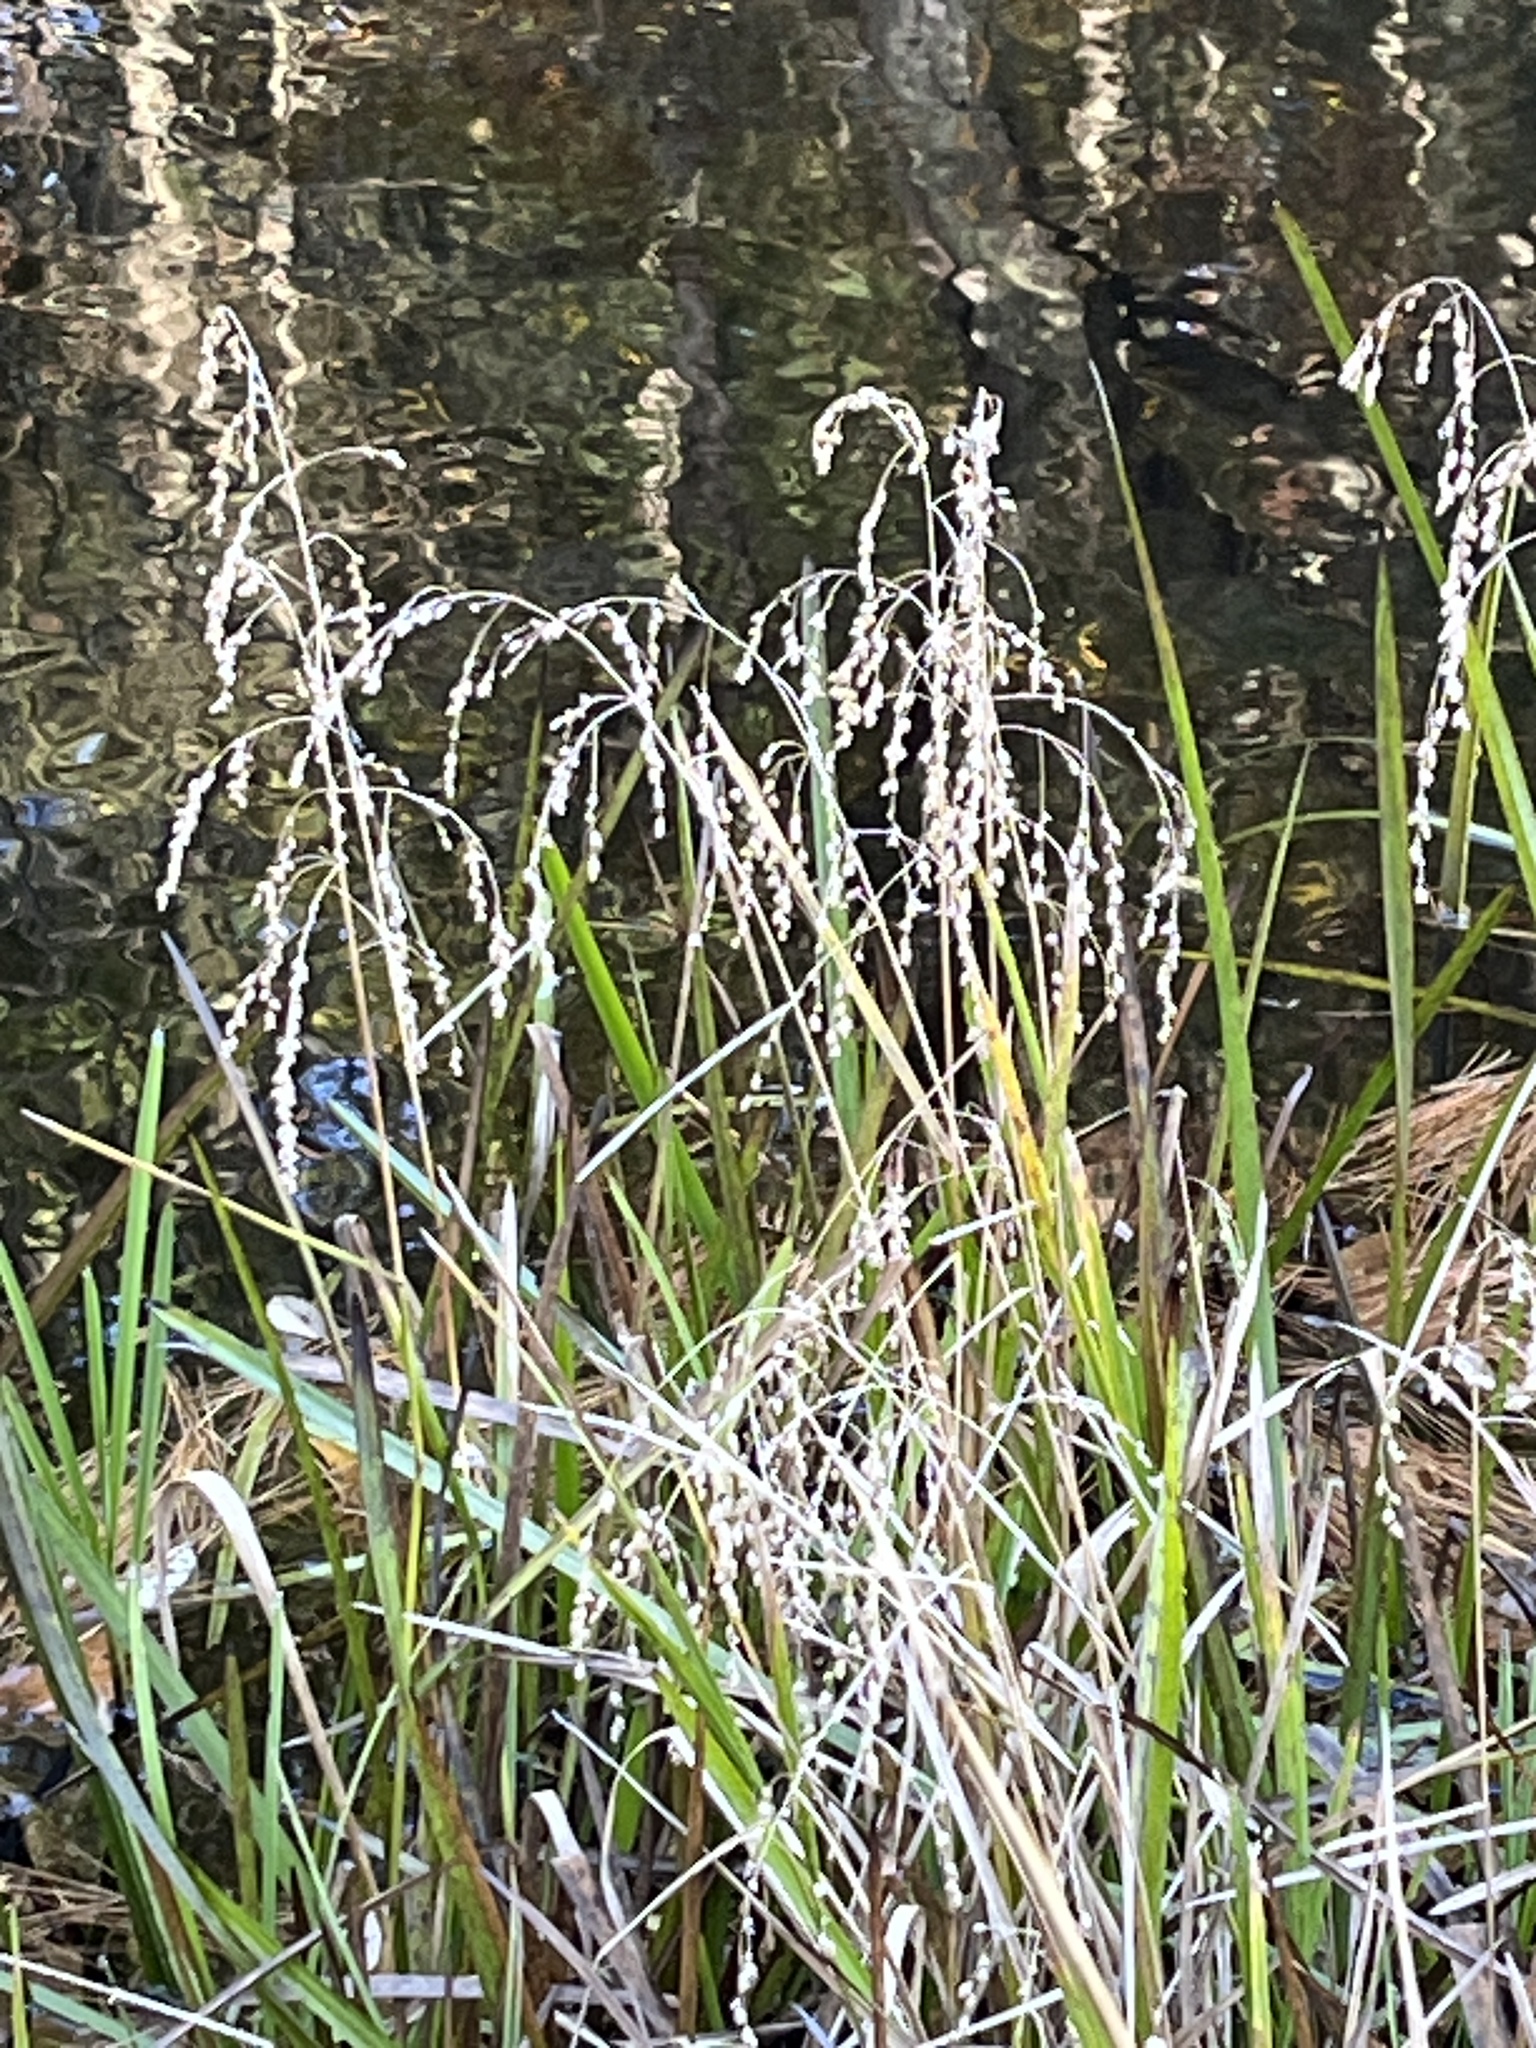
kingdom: Plantae
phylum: Tracheophyta
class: Liliopsida
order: Poales
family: Poaceae
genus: Glyceria
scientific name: Glyceria canadensis
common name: Canada mannagrass
